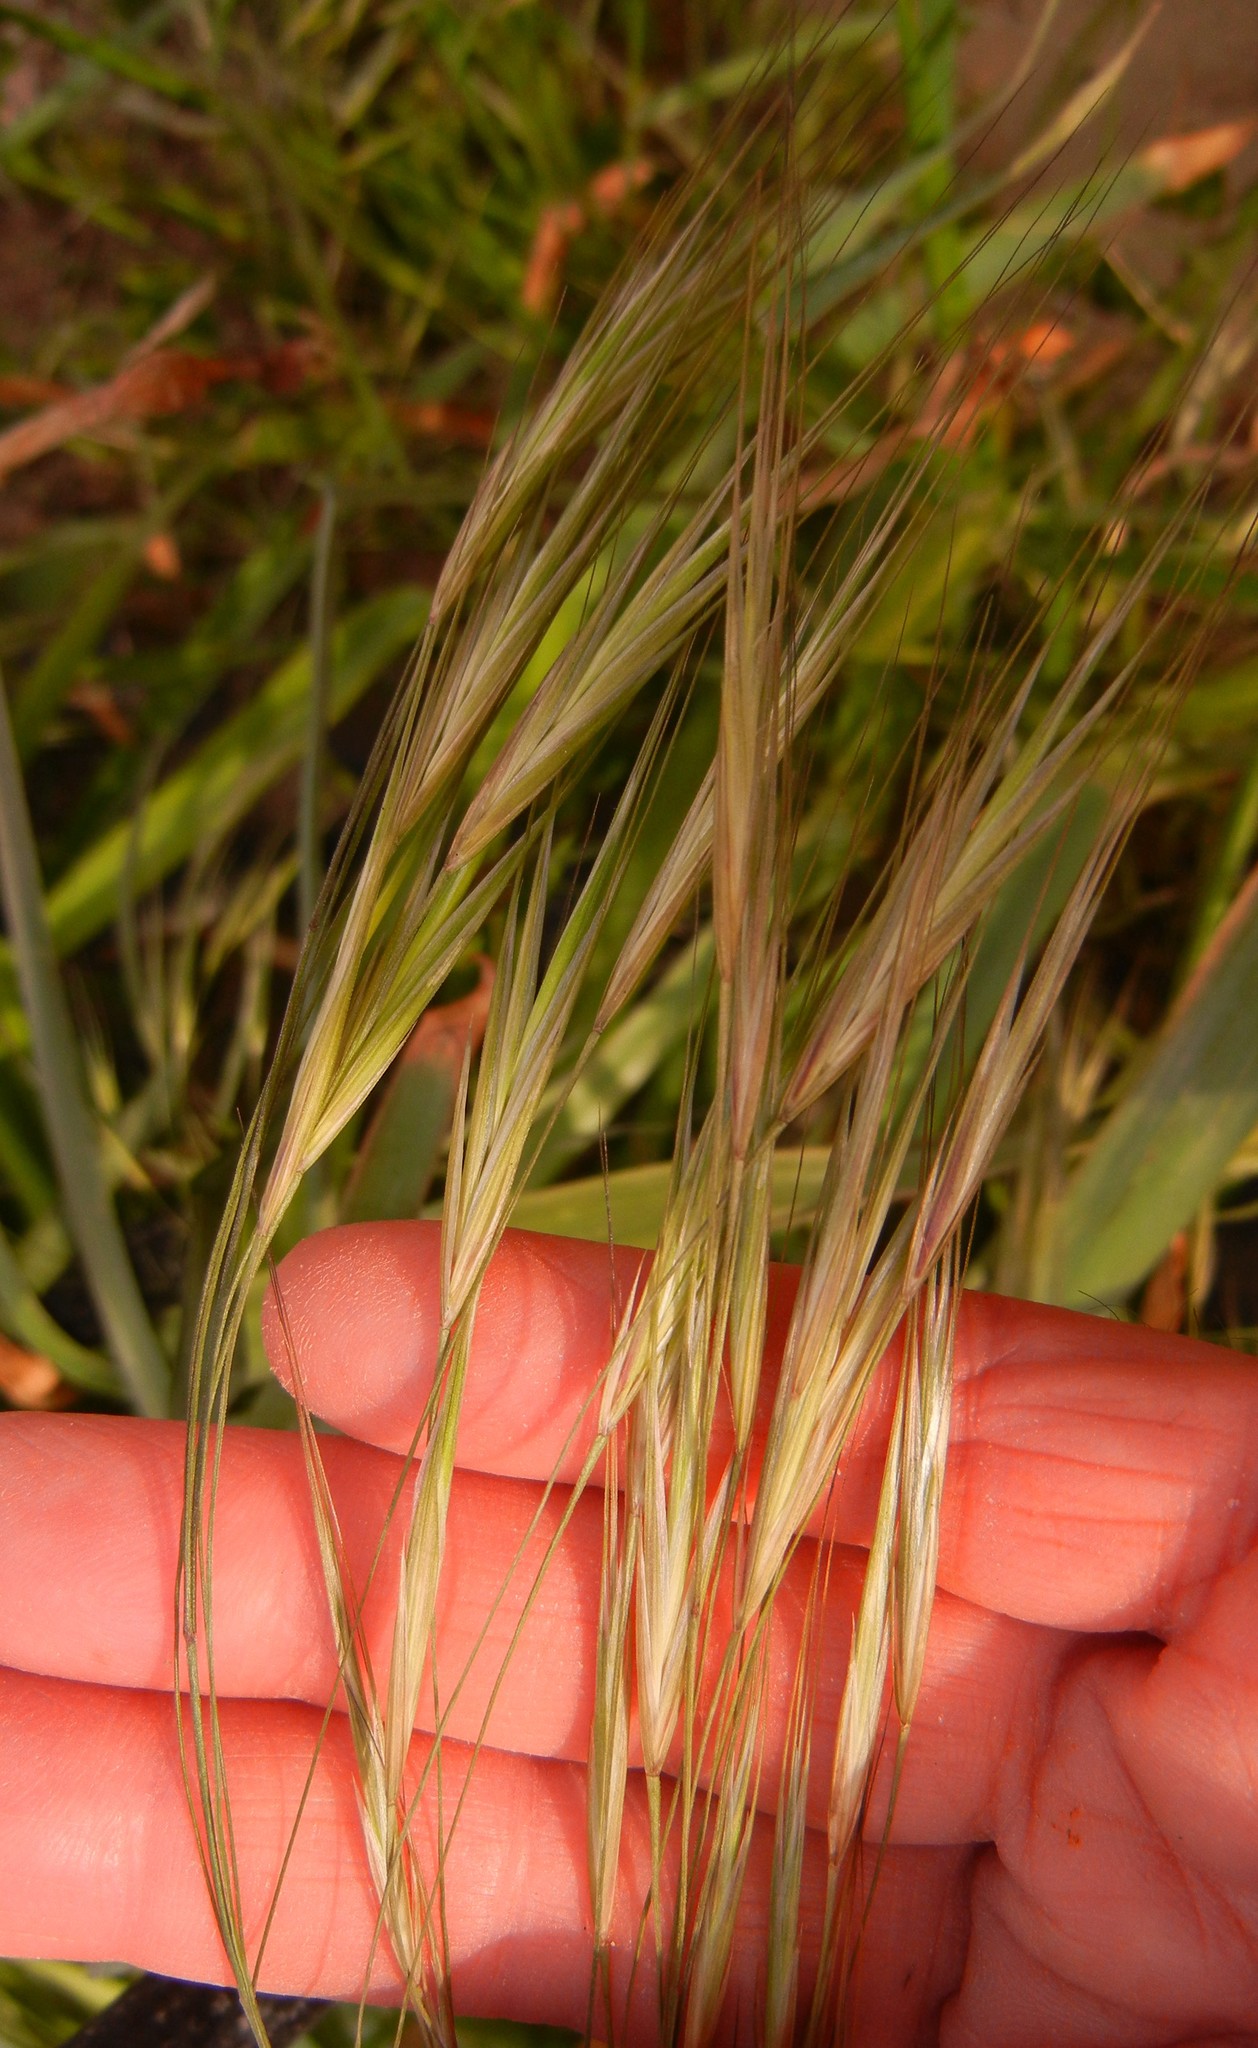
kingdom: Plantae
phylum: Tracheophyta
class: Liliopsida
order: Poales
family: Poaceae
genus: Bromus
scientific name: Bromus sterilis
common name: Poverty brome
